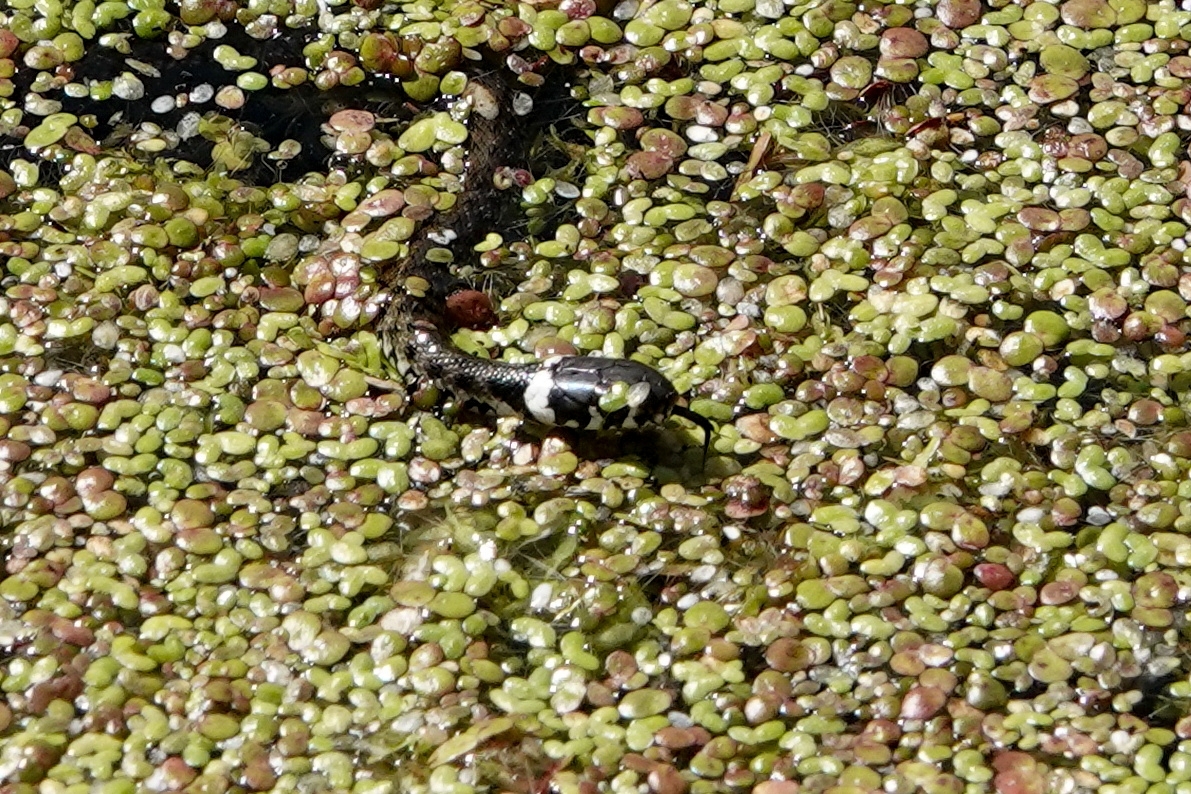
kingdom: Animalia
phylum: Chordata
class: Squamata
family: Colubridae
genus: Natrix
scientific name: Natrix natrix
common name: Grass snake
